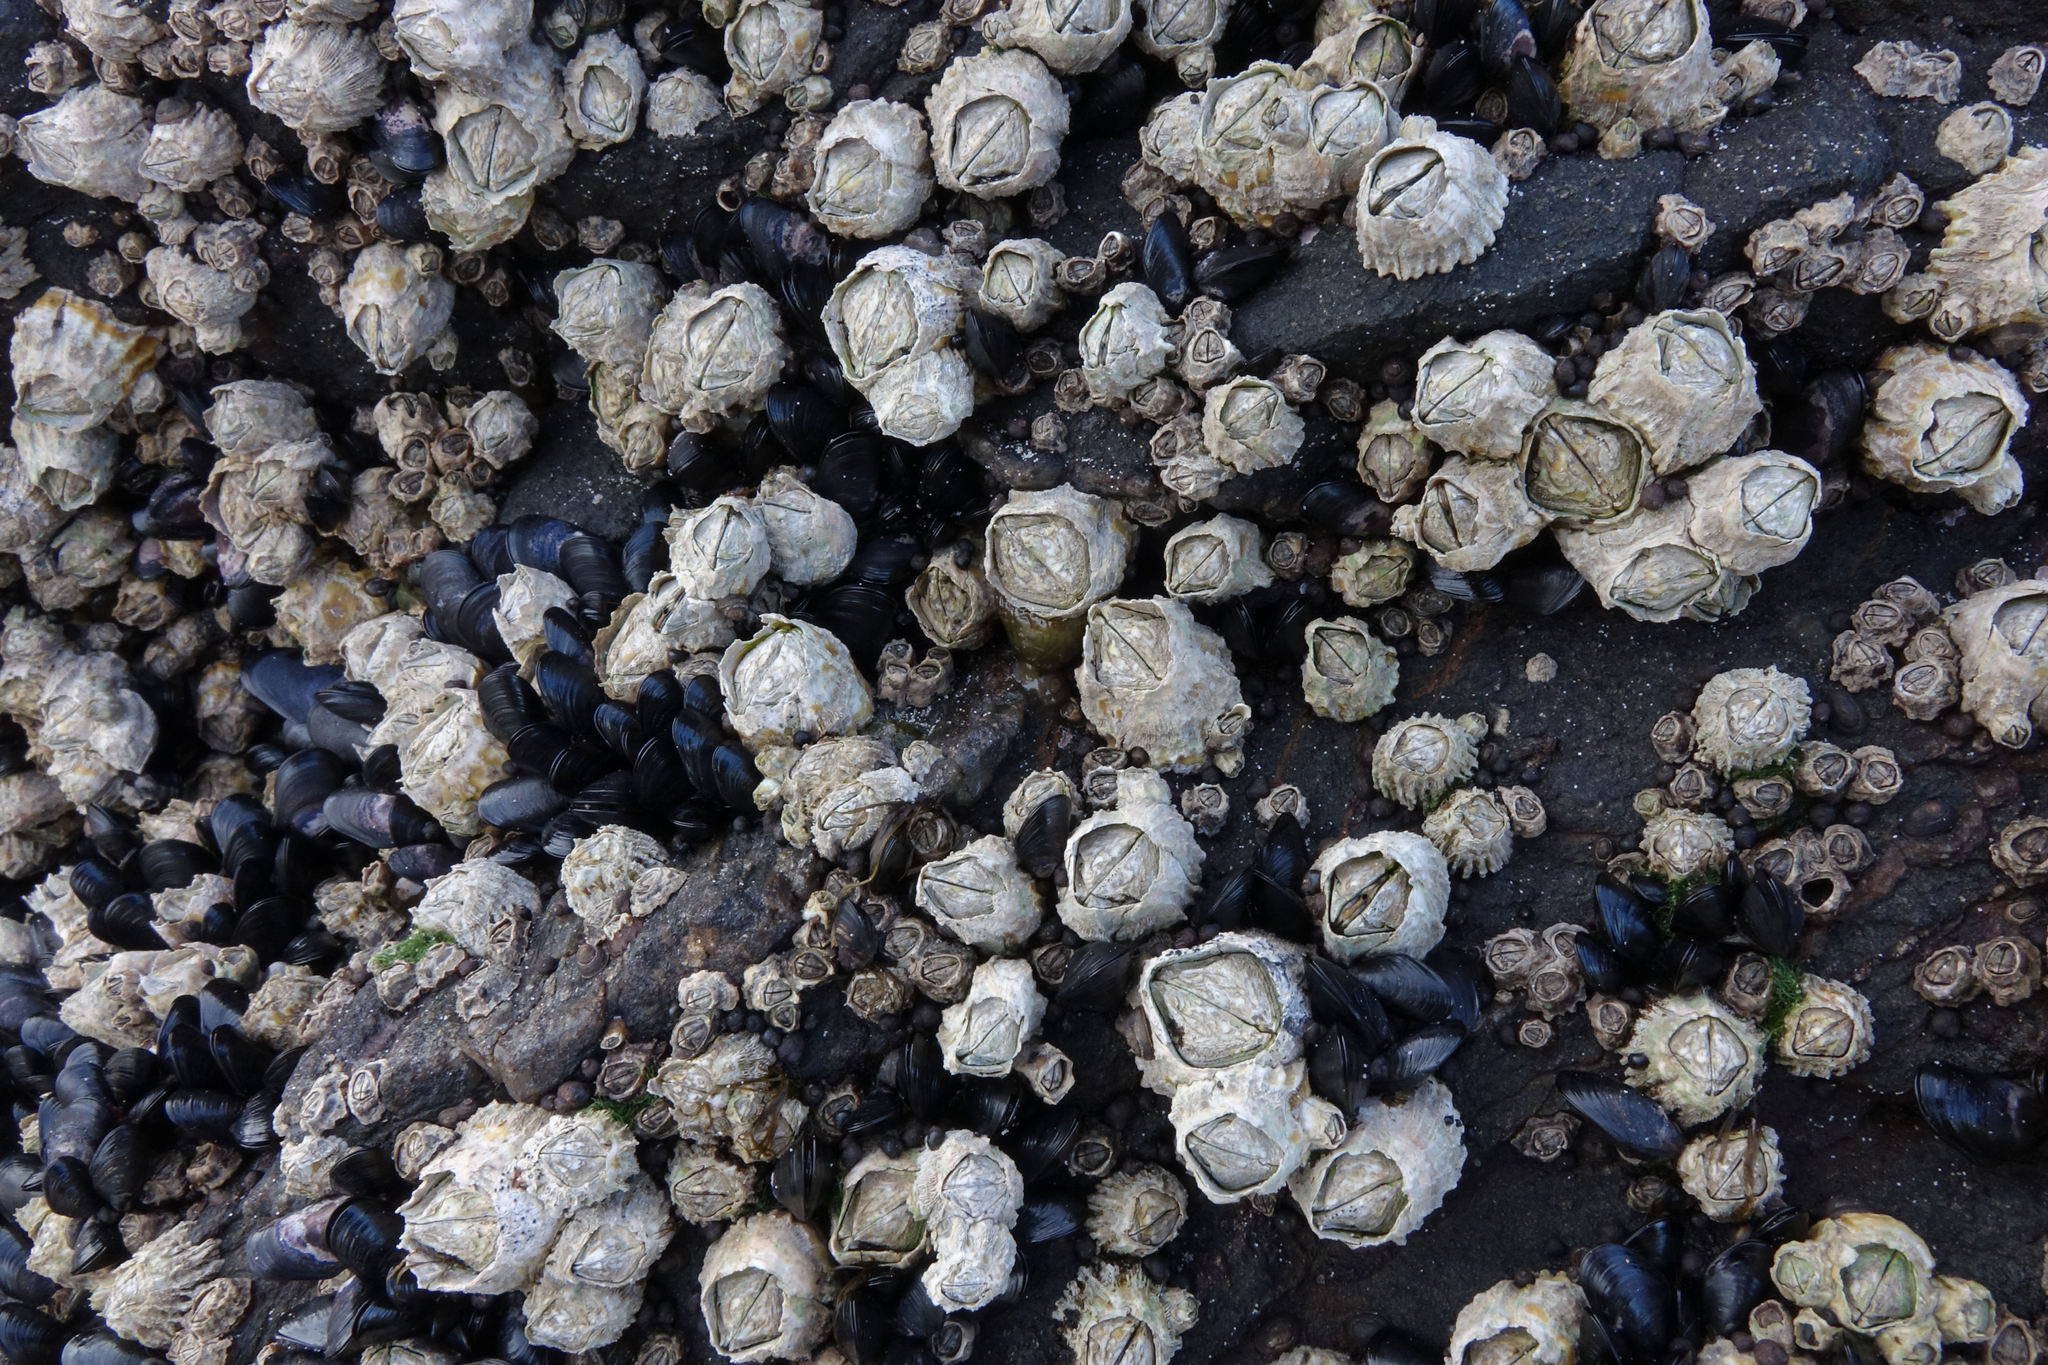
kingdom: Animalia
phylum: Arthropoda
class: Maxillopoda
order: Sessilia
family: Chthamalidae
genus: Chamaesipho
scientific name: Chamaesipho columna
